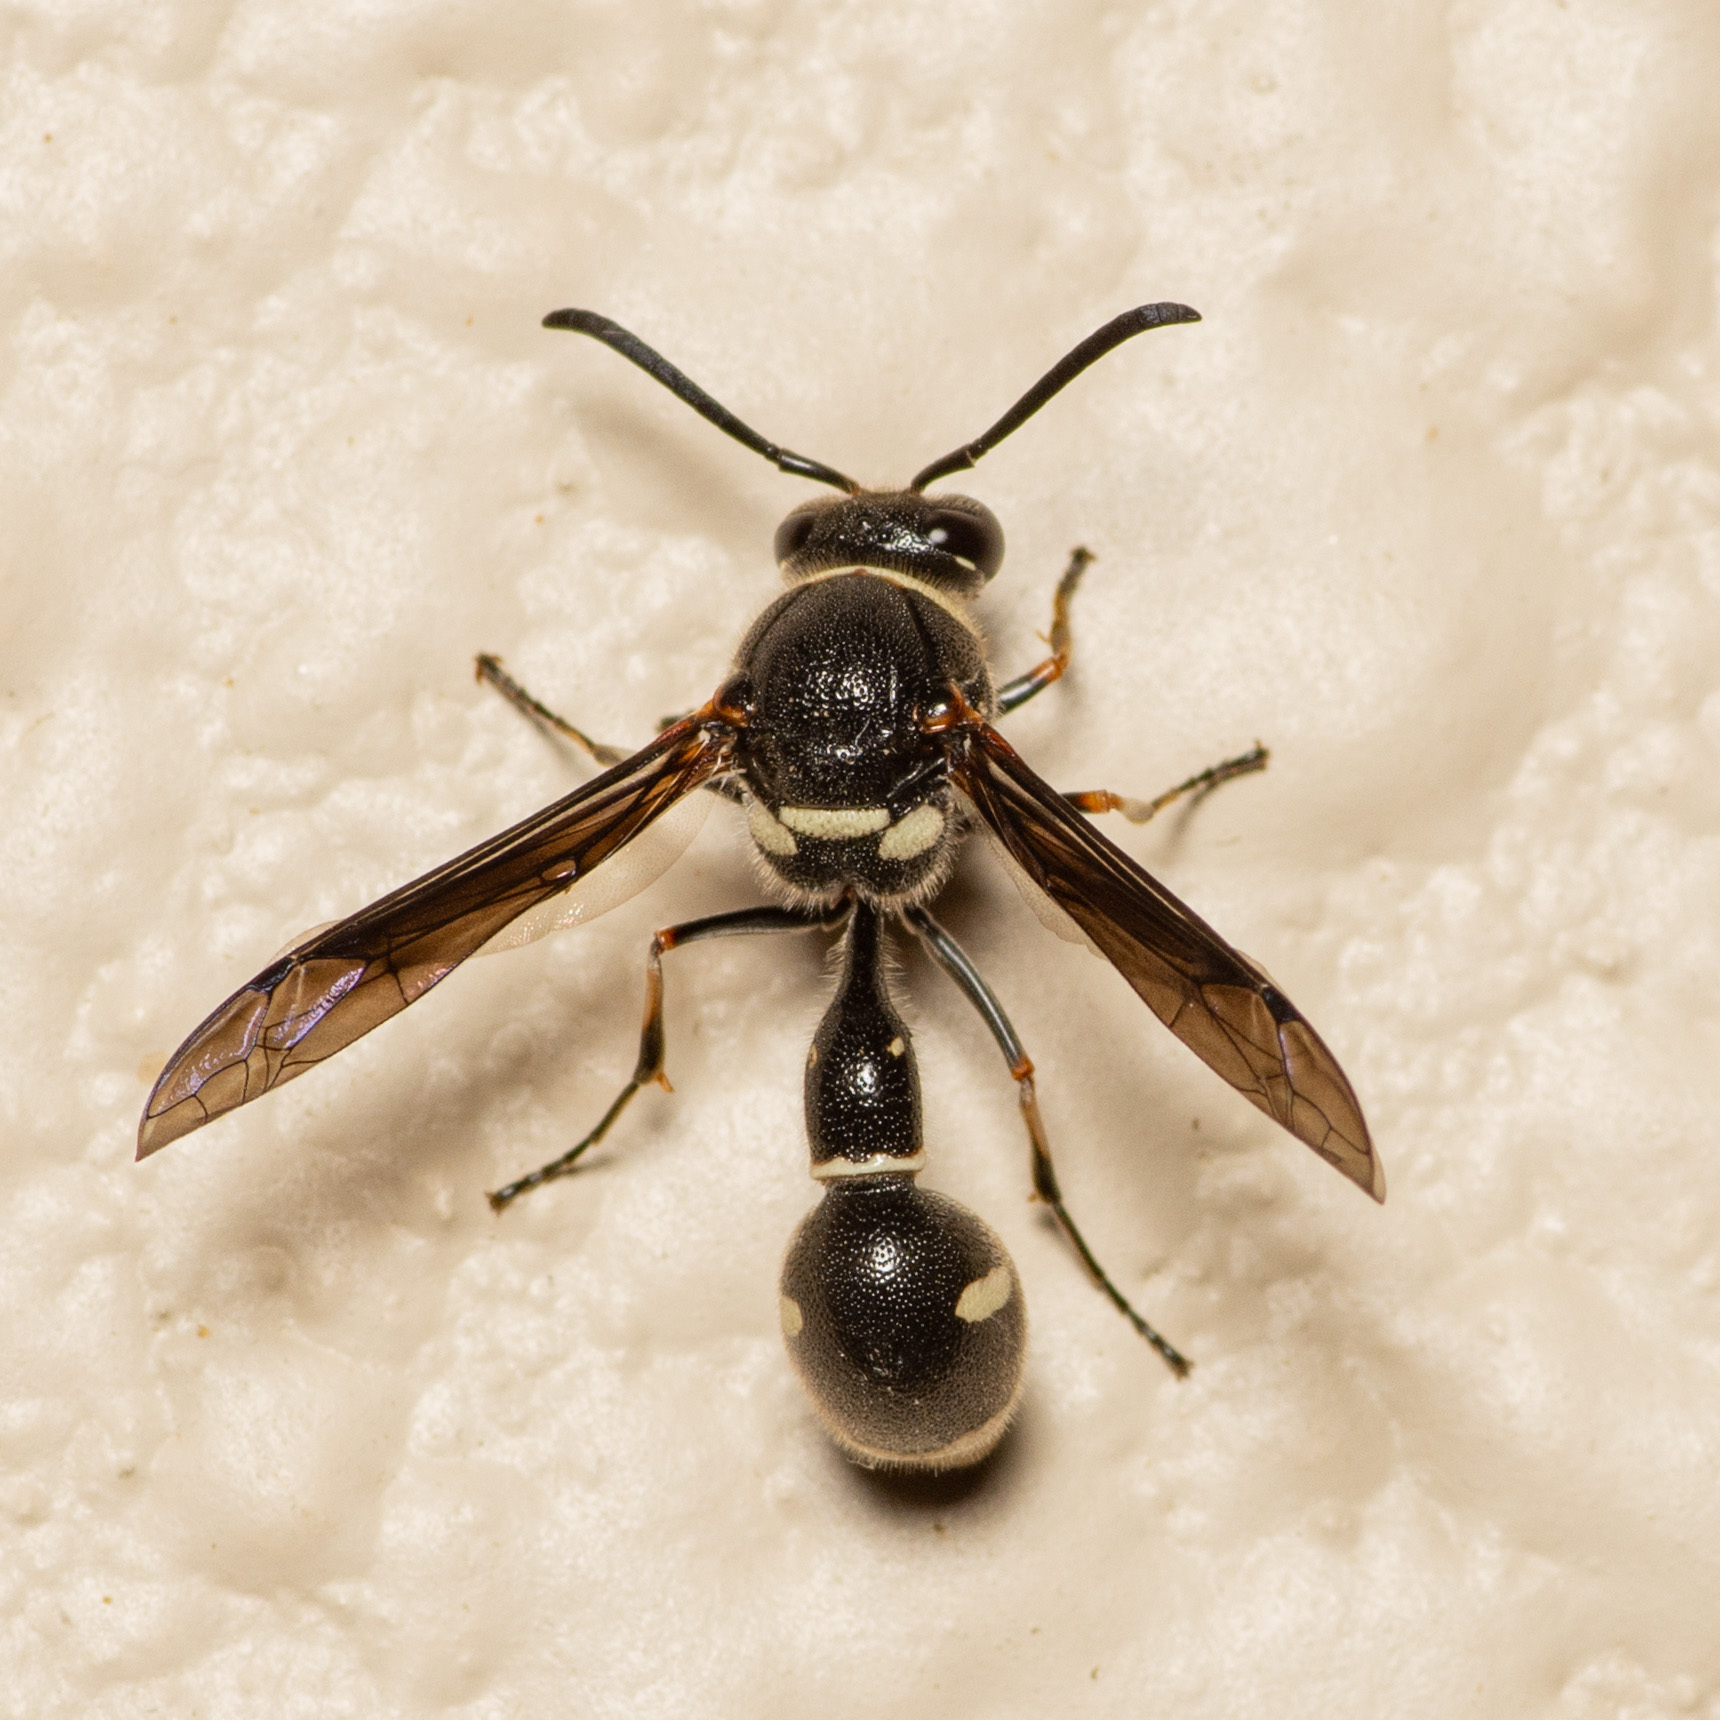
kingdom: Animalia
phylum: Arthropoda
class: Insecta
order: Hymenoptera
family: Vespidae
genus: Eumenes
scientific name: Eumenes fraternus
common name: Fraternal potter wasp
